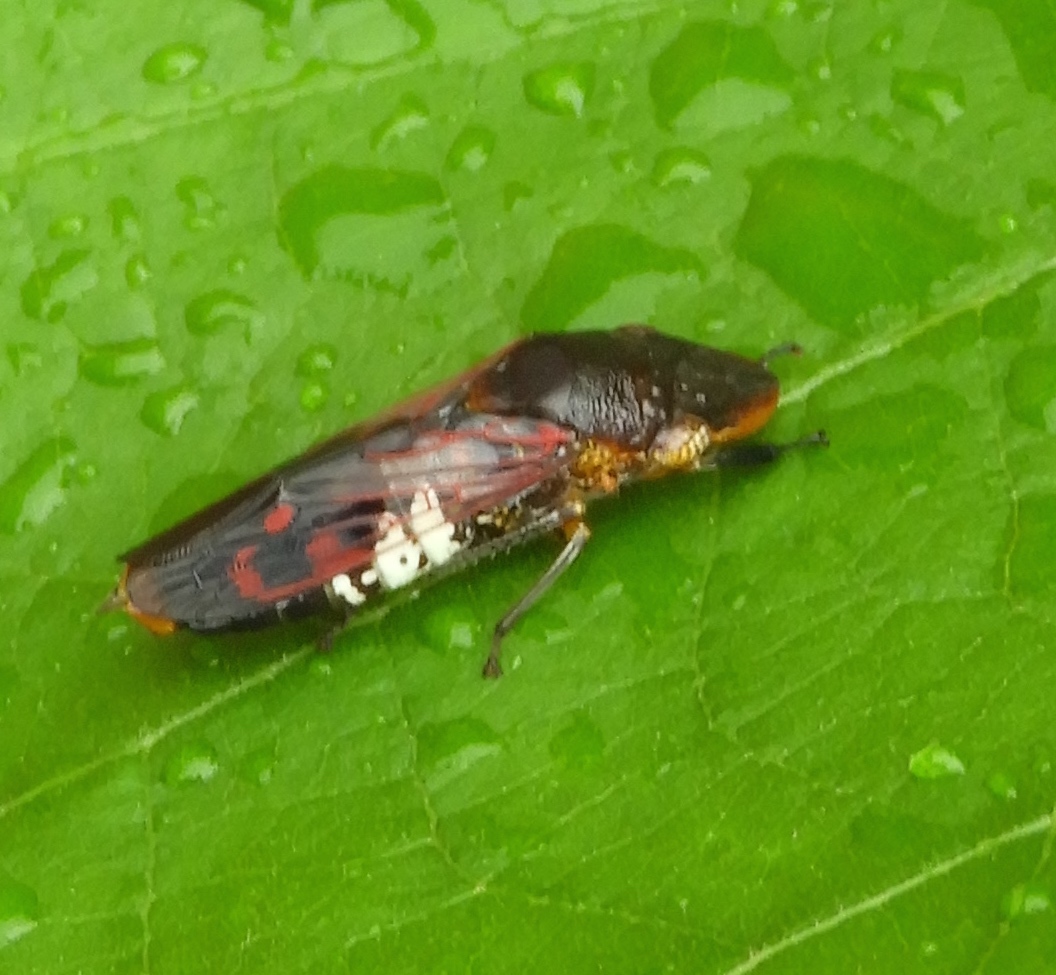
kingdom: Animalia
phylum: Arthropoda
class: Insecta
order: Hemiptera
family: Cicadellidae
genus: Homalodisca
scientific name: Homalodisca
